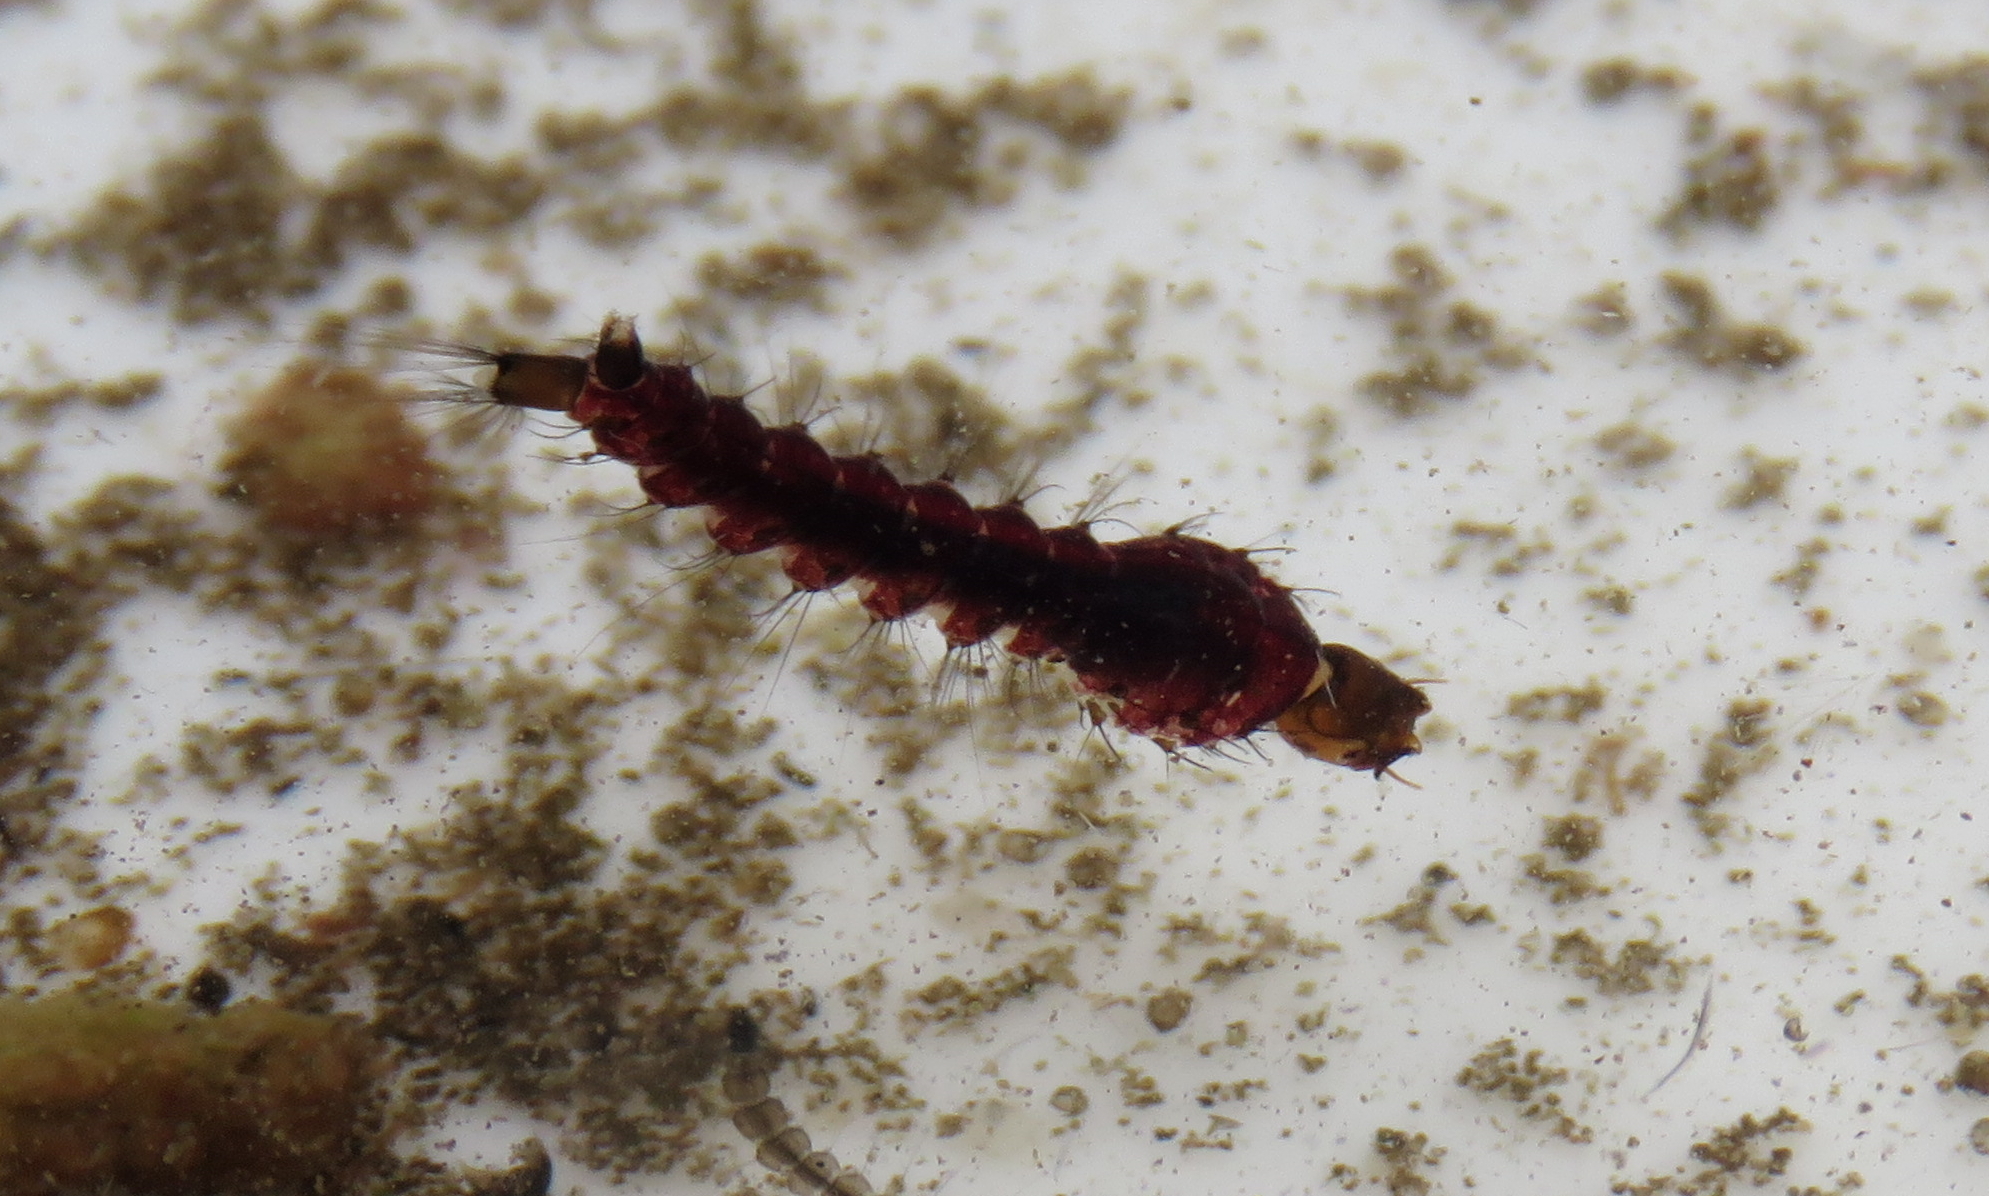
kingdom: Animalia
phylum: Arthropoda
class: Insecta
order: Diptera
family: Culicidae
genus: Toxorhynchites
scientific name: Toxorhynchites speciosus
